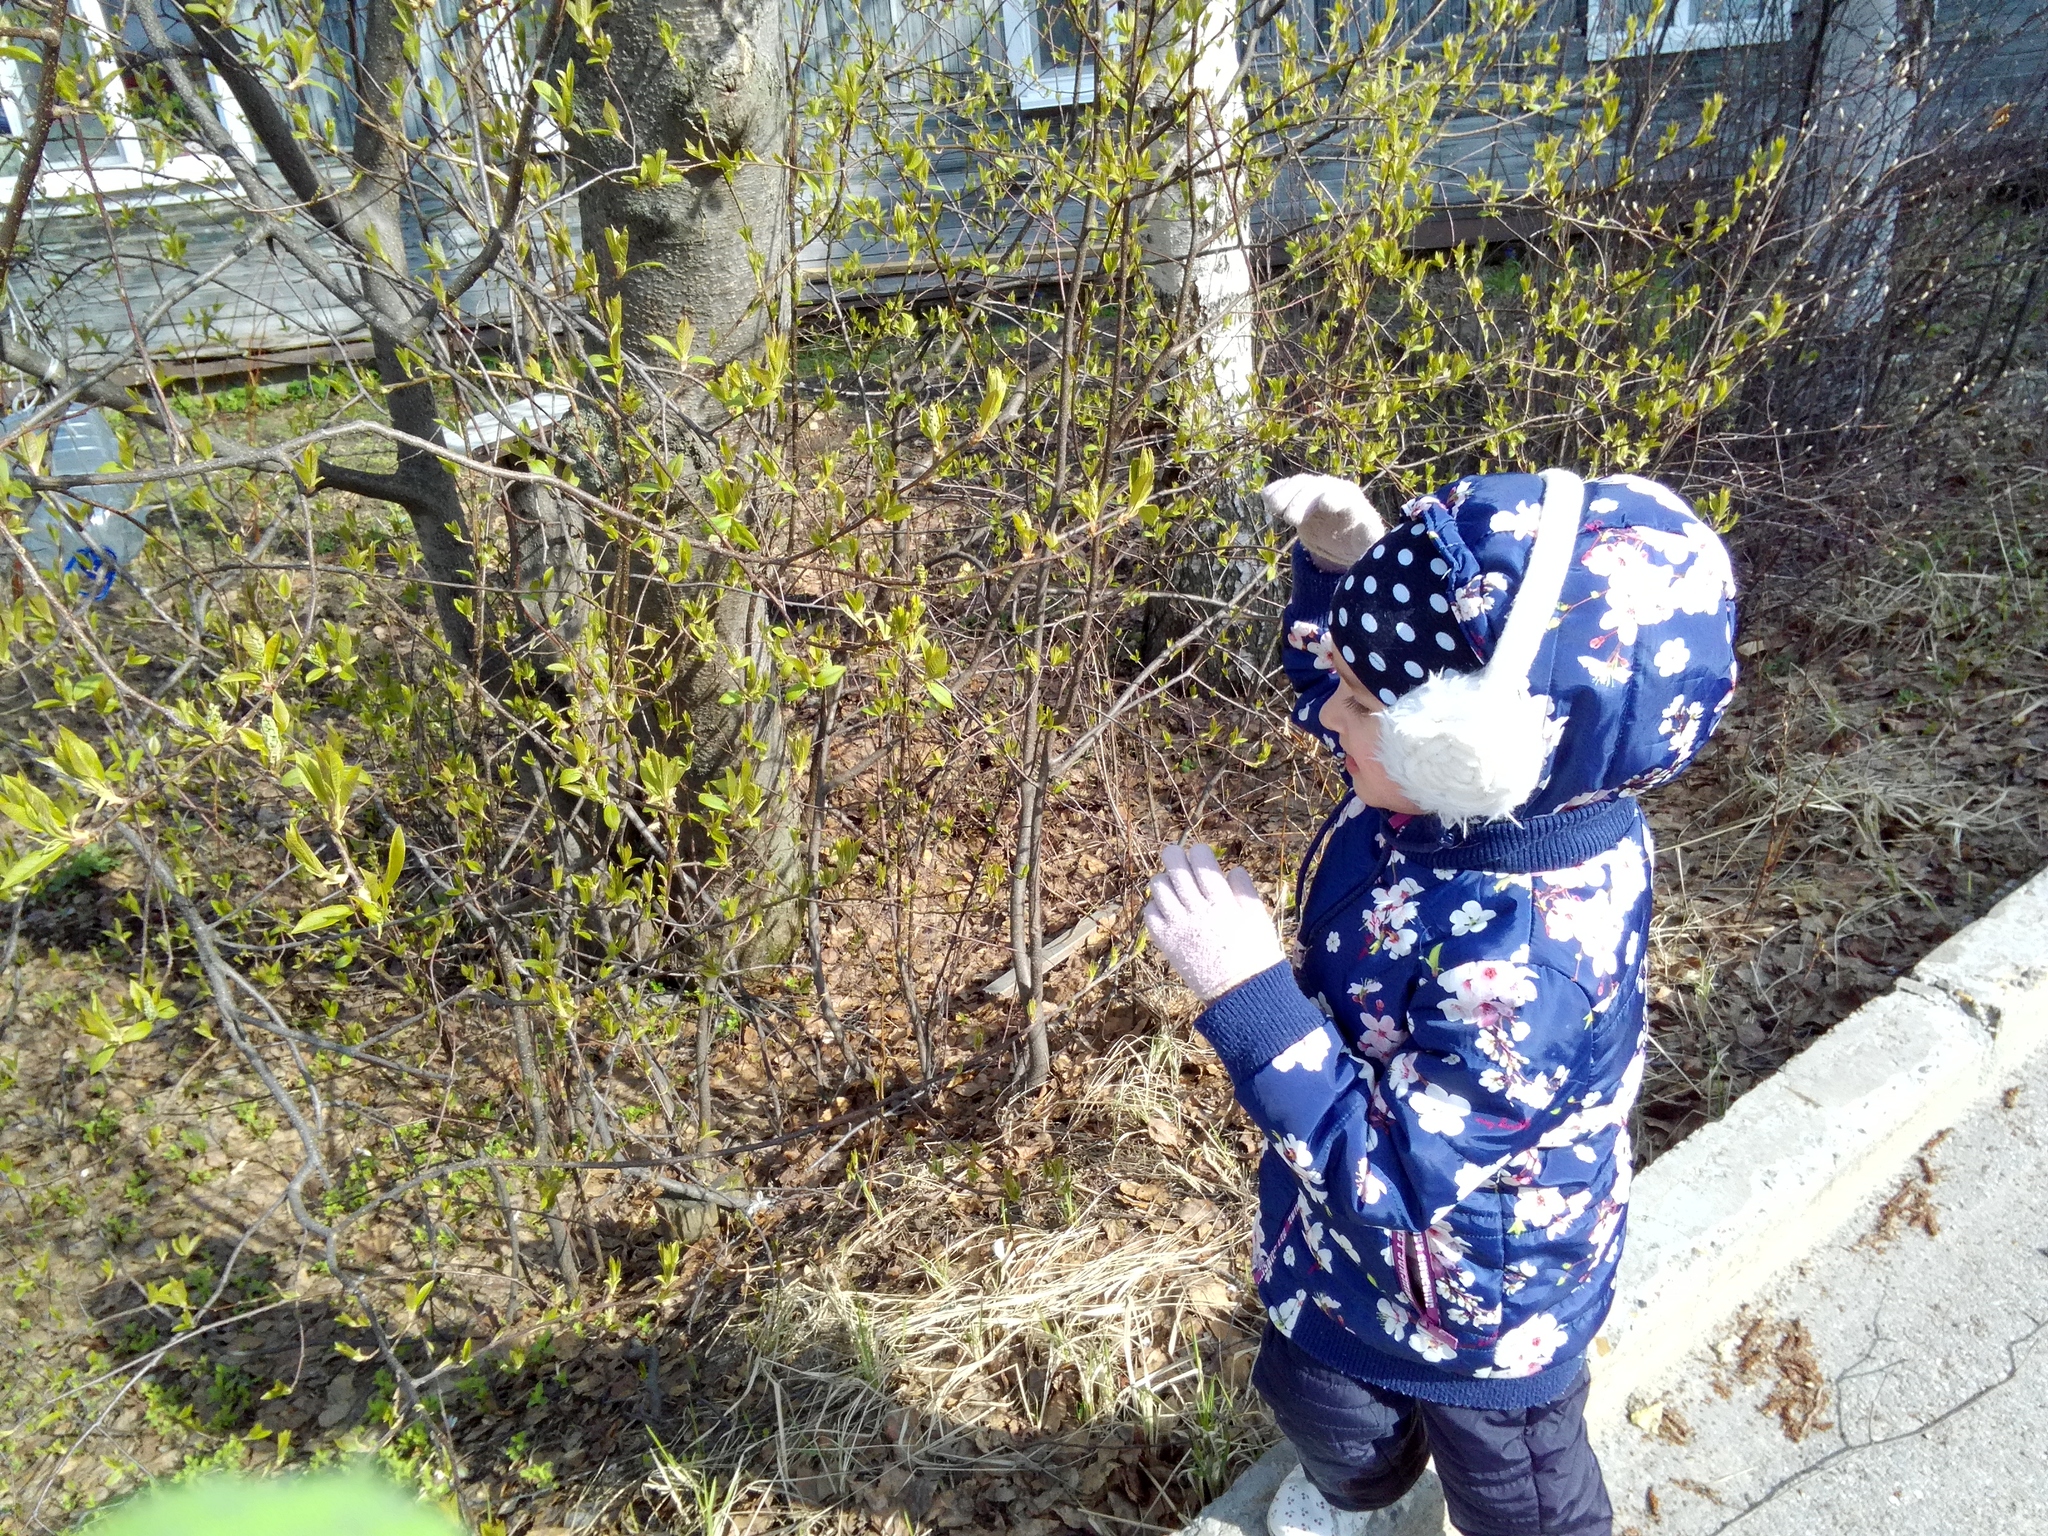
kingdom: Plantae
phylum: Tracheophyta
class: Magnoliopsida
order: Rosales
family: Rosaceae
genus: Prunus
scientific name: Prunus padus
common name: Bird cherry
